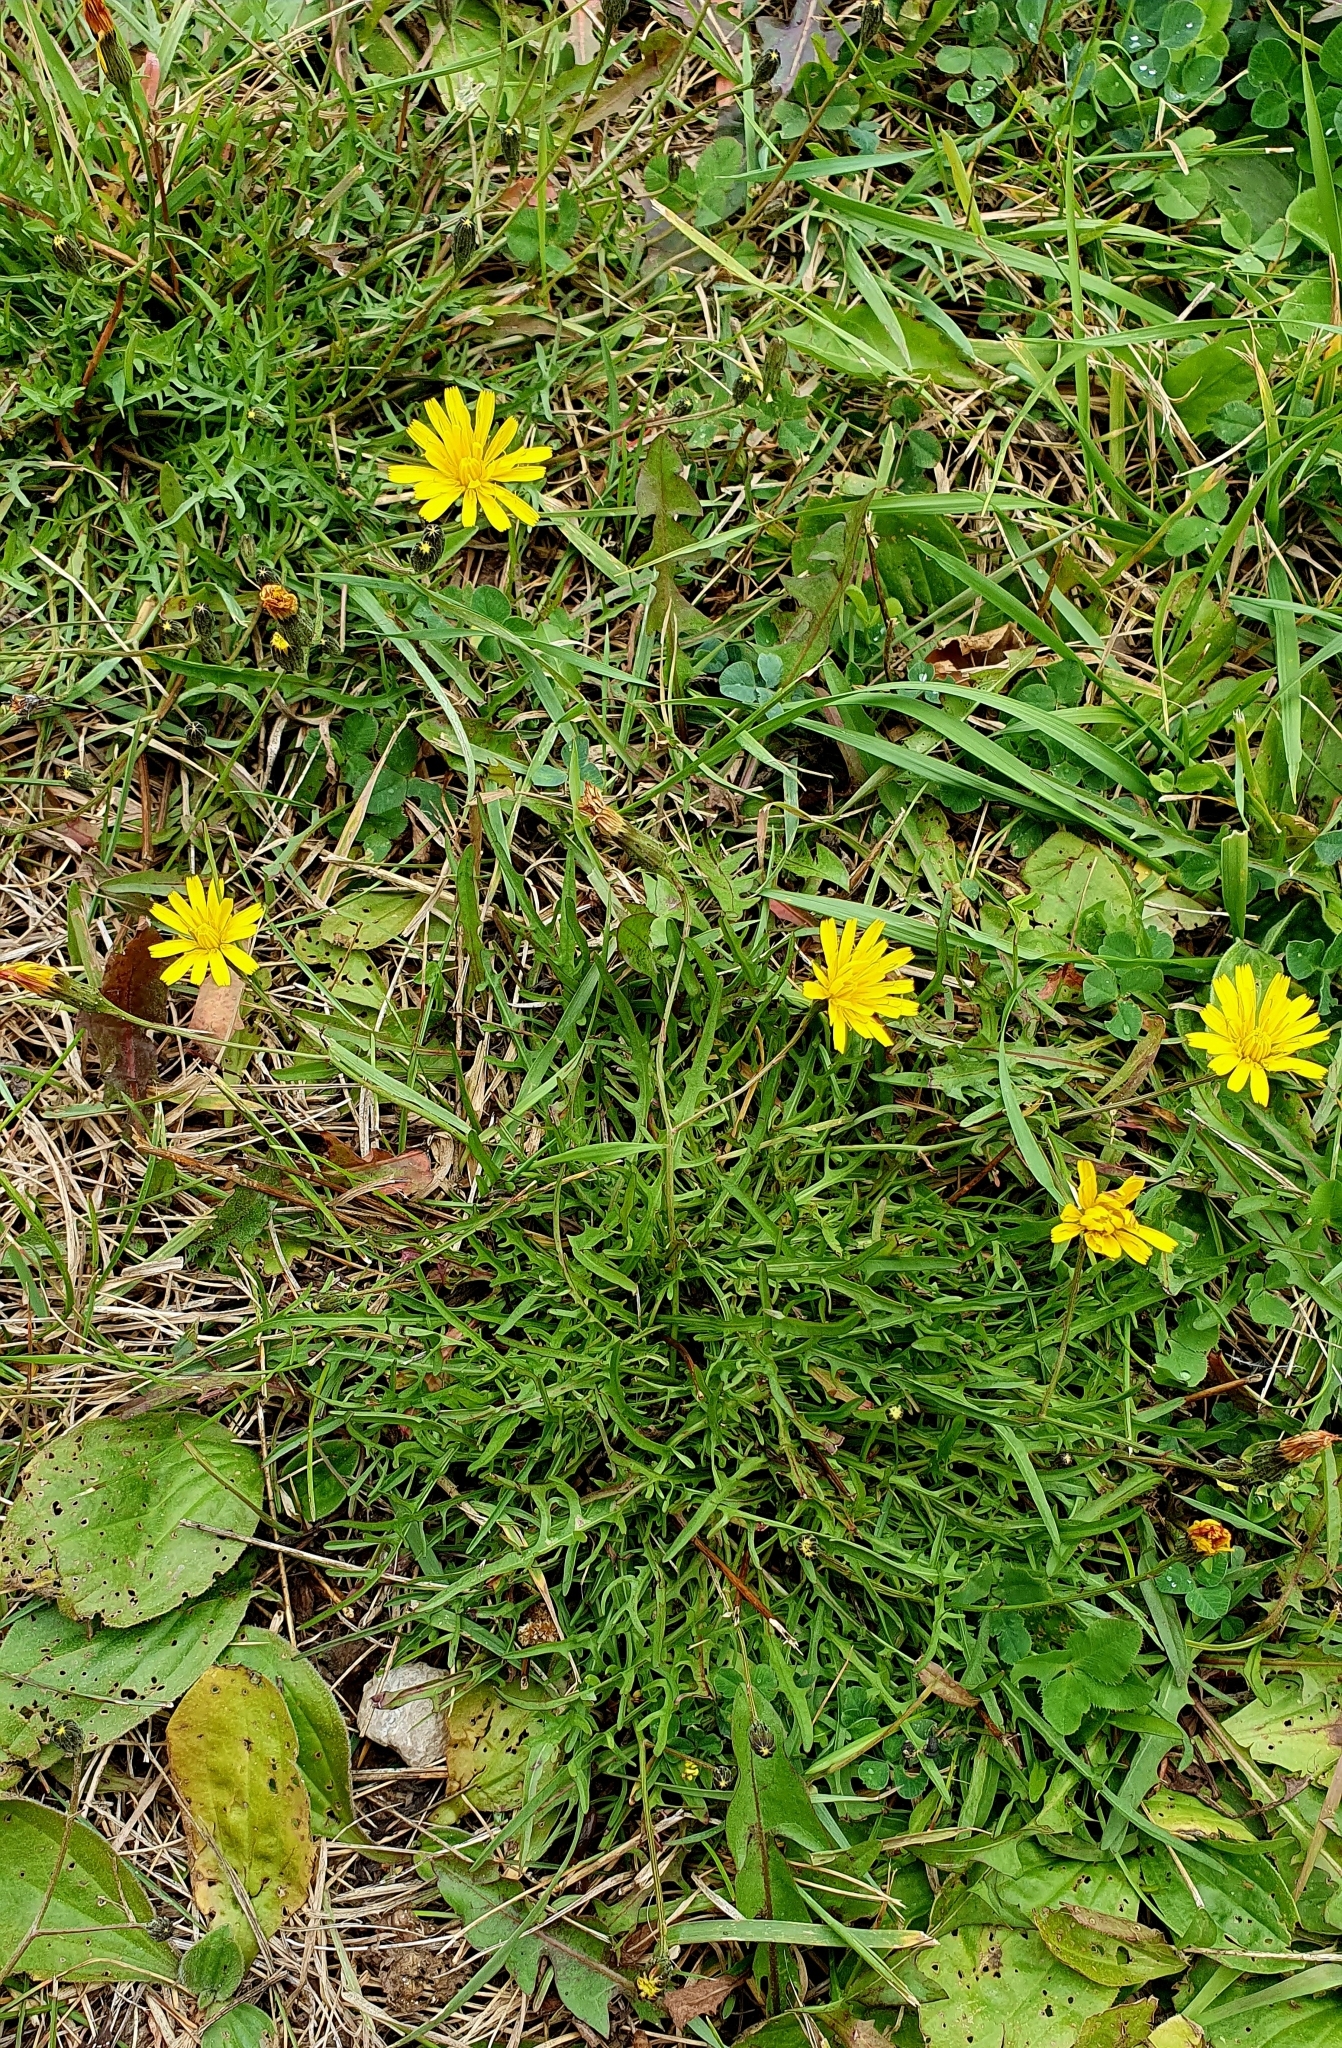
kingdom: Plantae
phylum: Tracheophyta
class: Magnoliopsida
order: Asterales
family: Asteraceae
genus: Scorzoneroides
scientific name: Scorzoneroides autumnalis
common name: Autumn hawkbit
